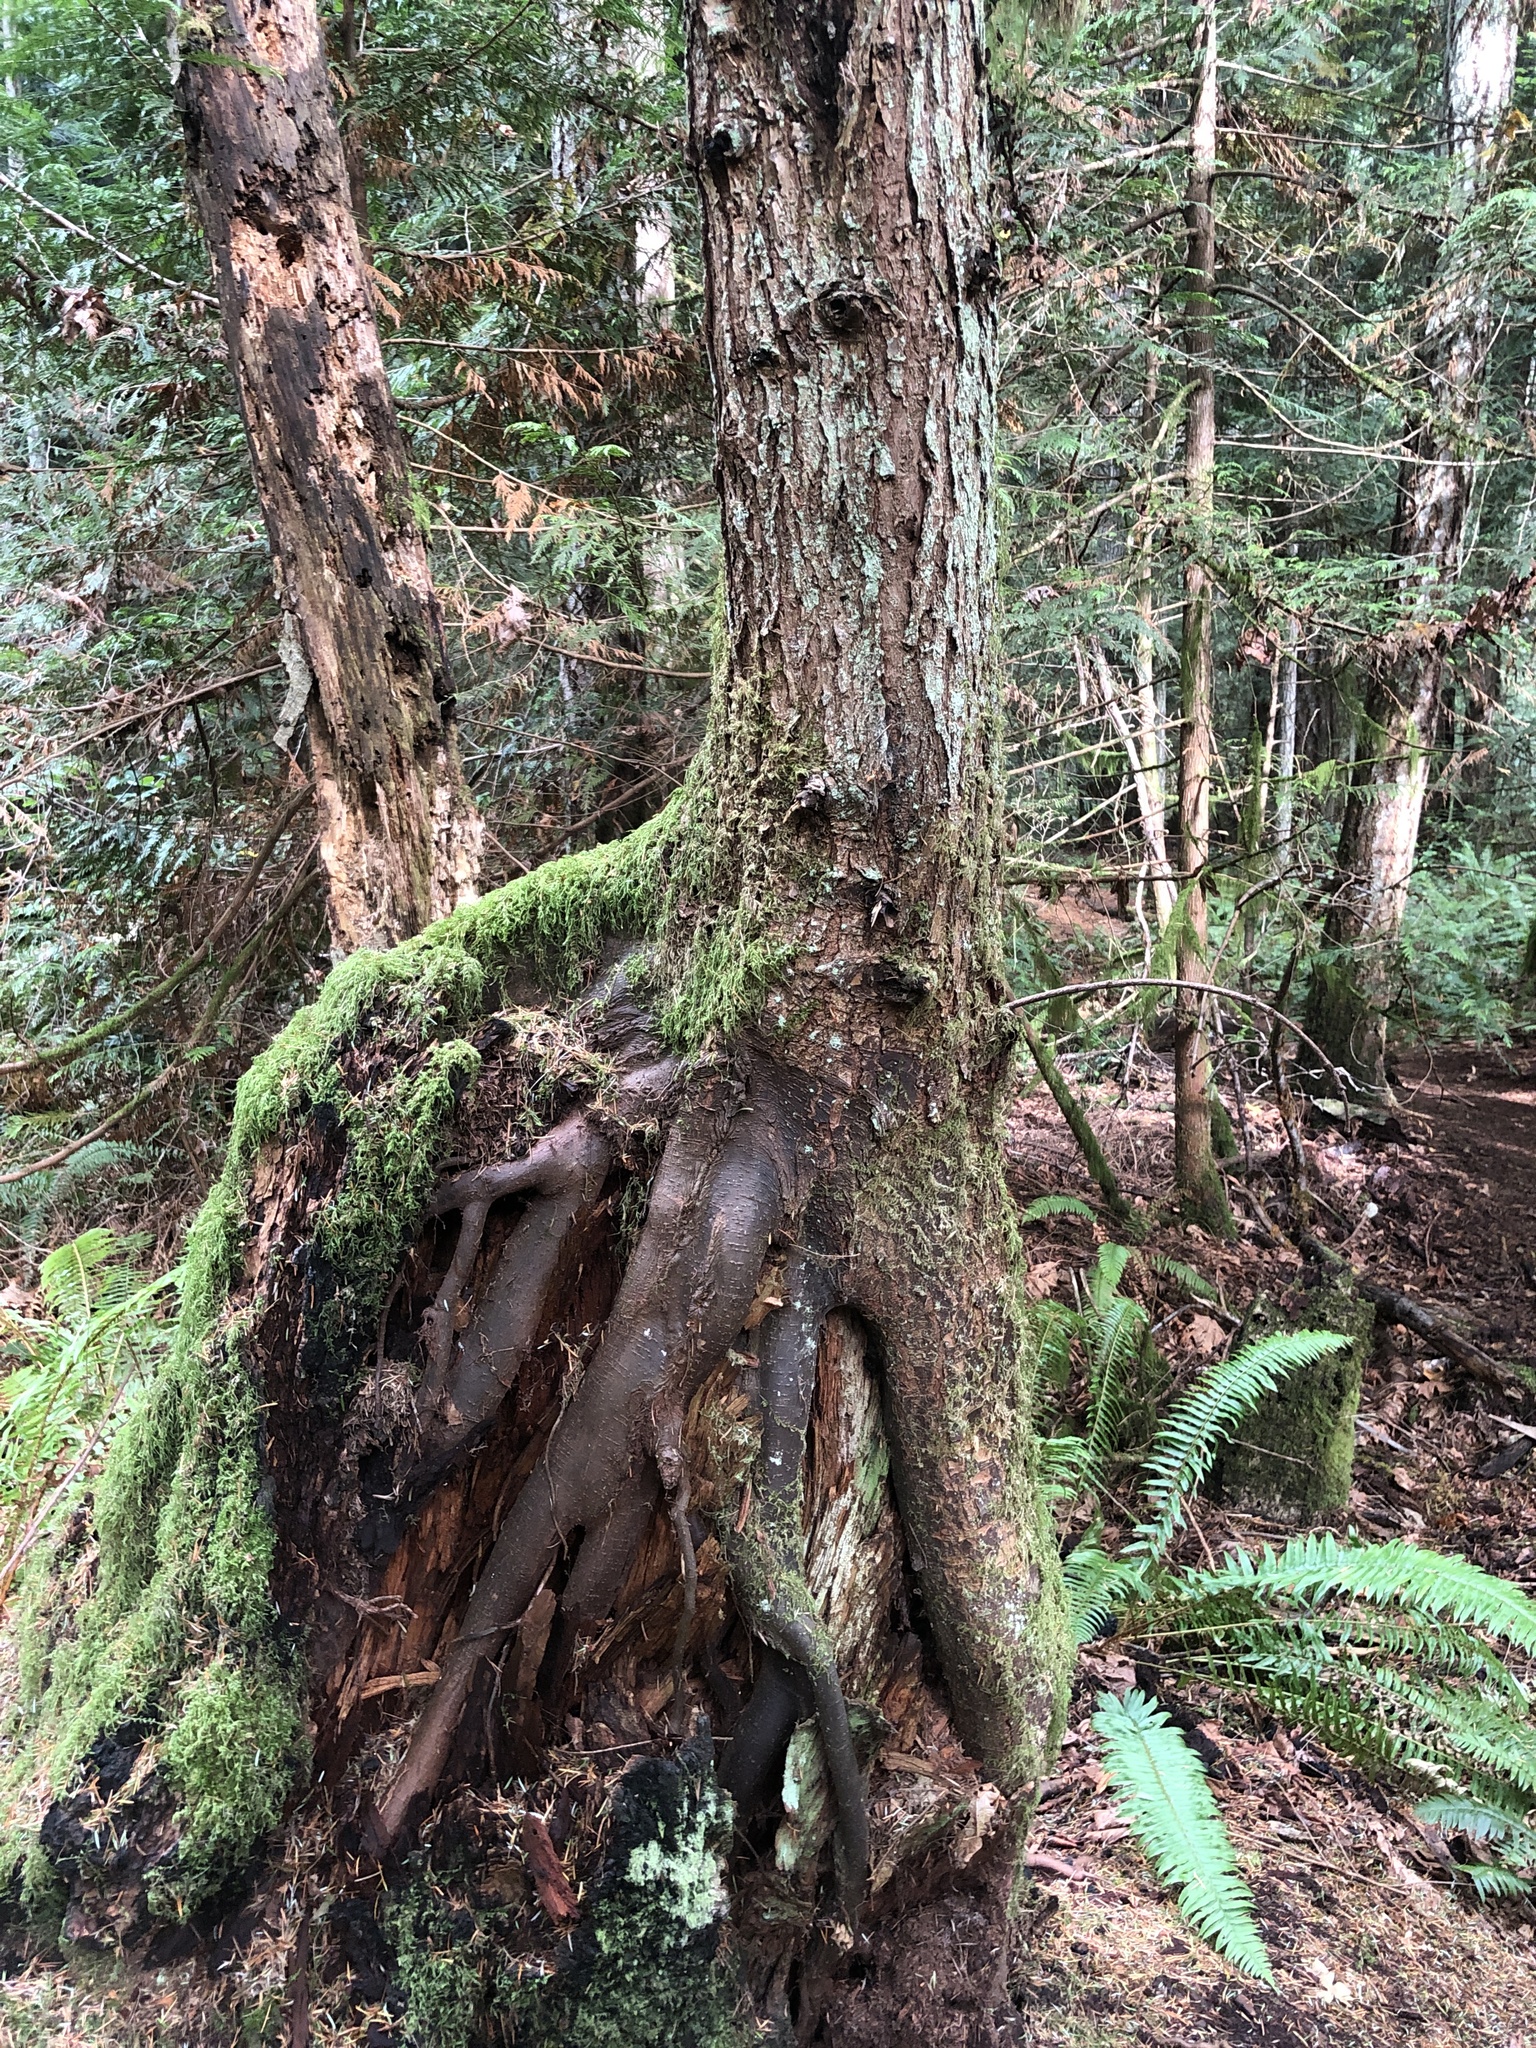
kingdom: Plantae
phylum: Tracheophyta
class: Pinopsida
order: Pinales
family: Pinaceae
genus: Tsuga
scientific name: Tsuga heterophylla
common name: Western hemlock
